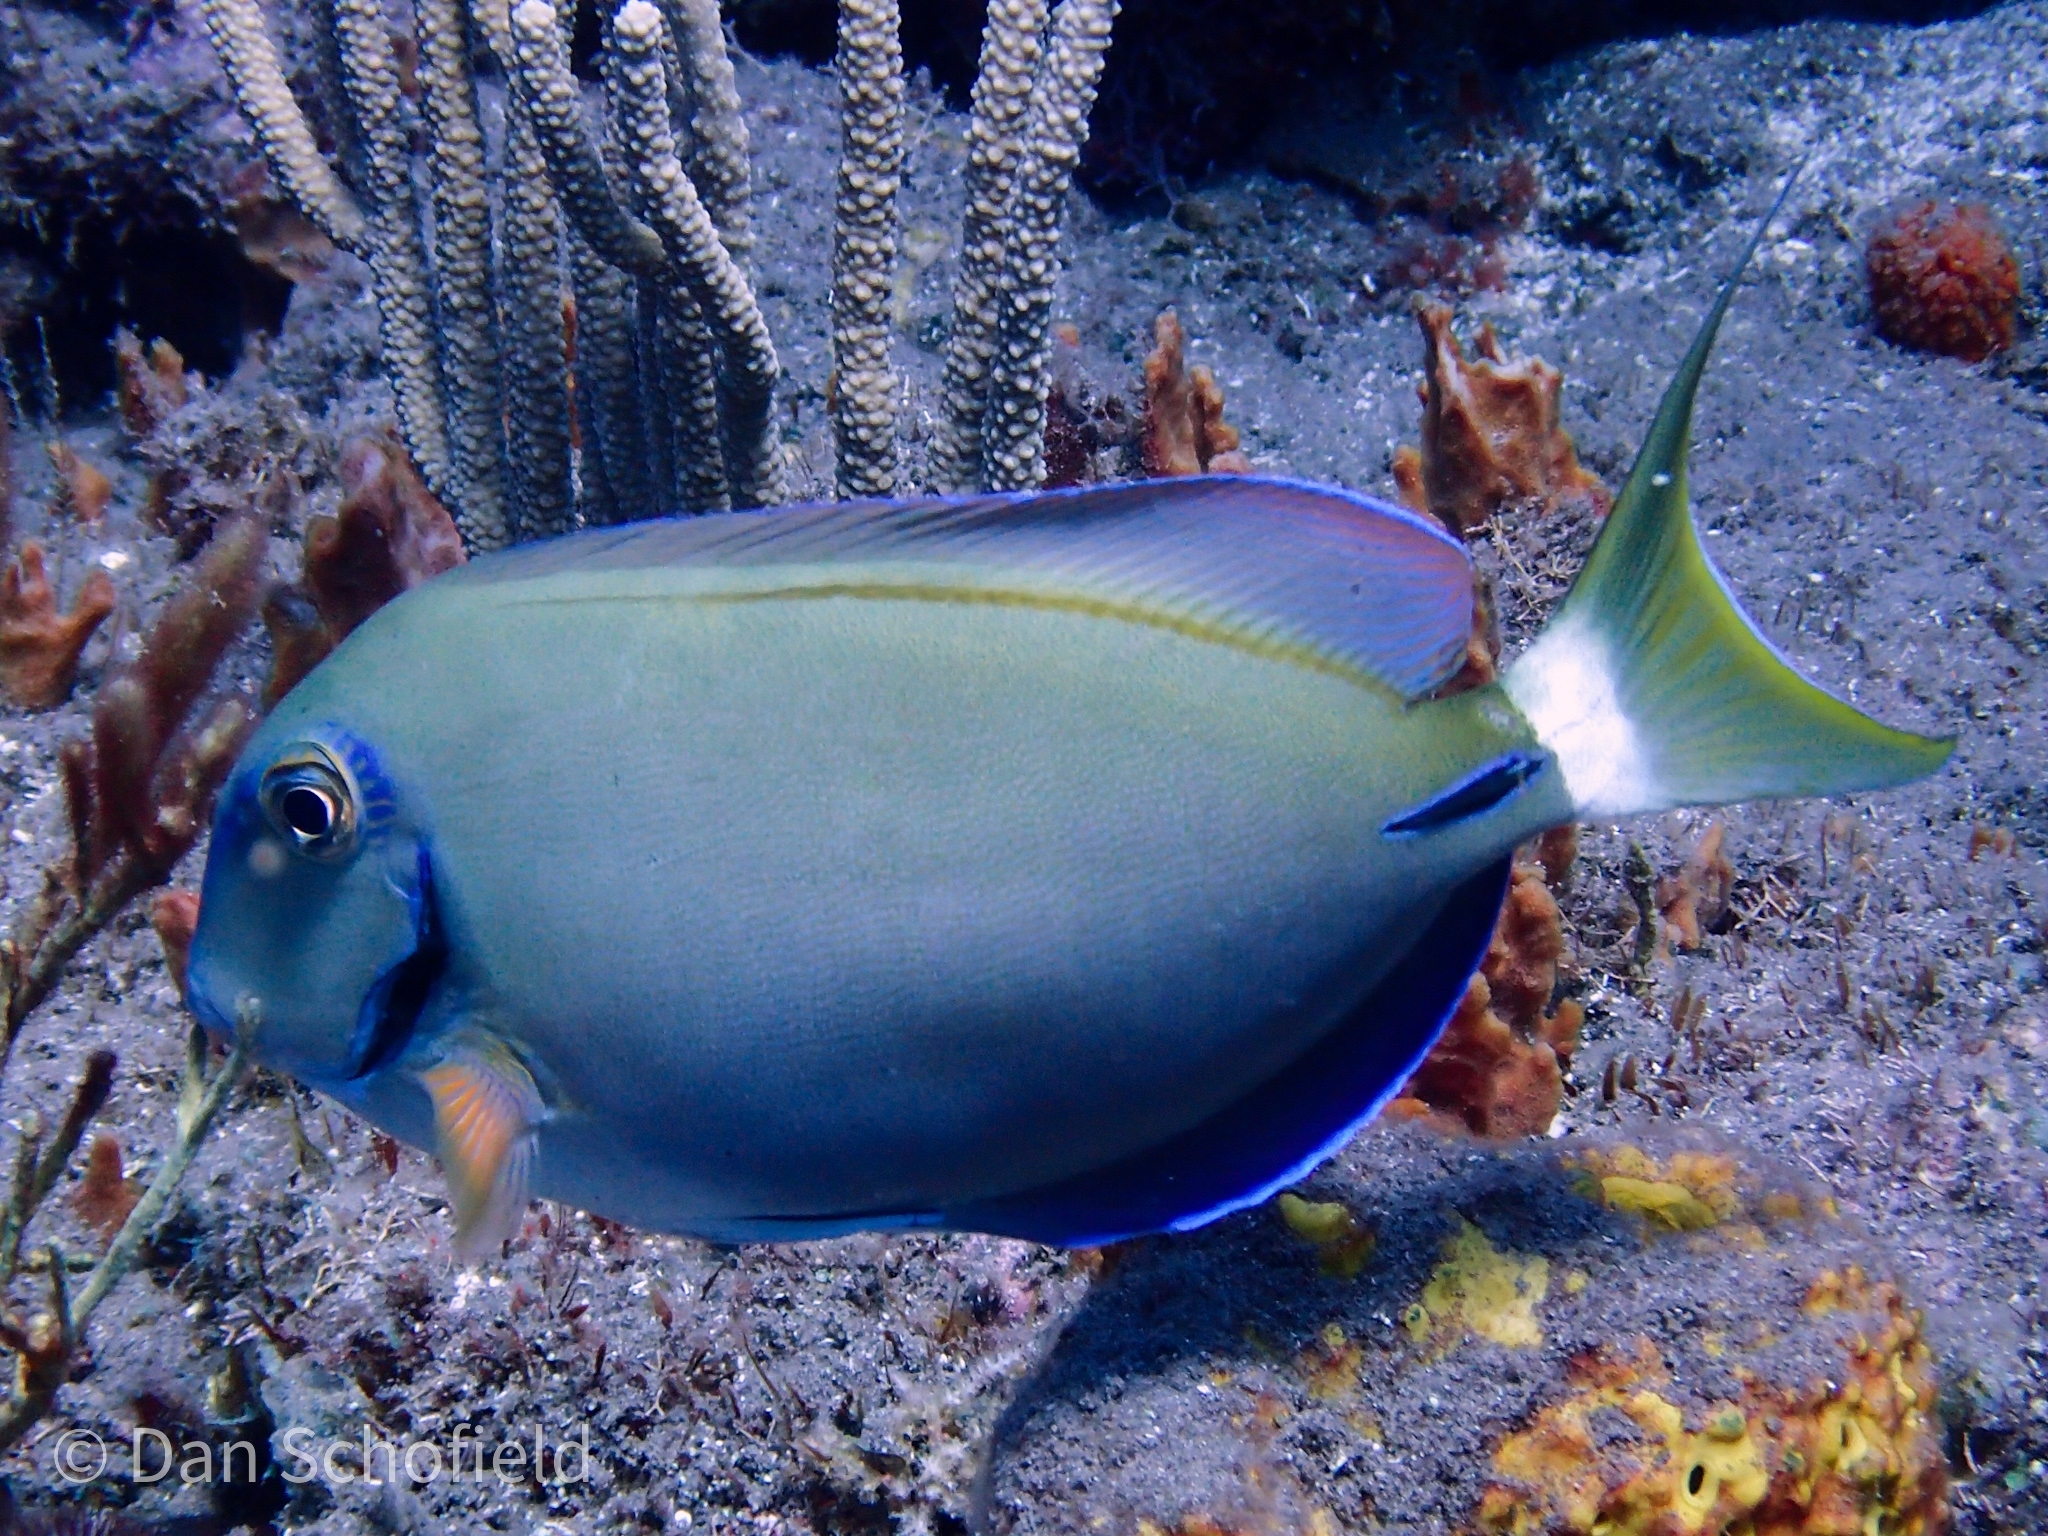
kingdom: Animalia
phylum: Chordata
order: Perciformes
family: Acanthuridae
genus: Acanthurus
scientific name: Acanthurus bahianus
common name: Ocean surgeon
